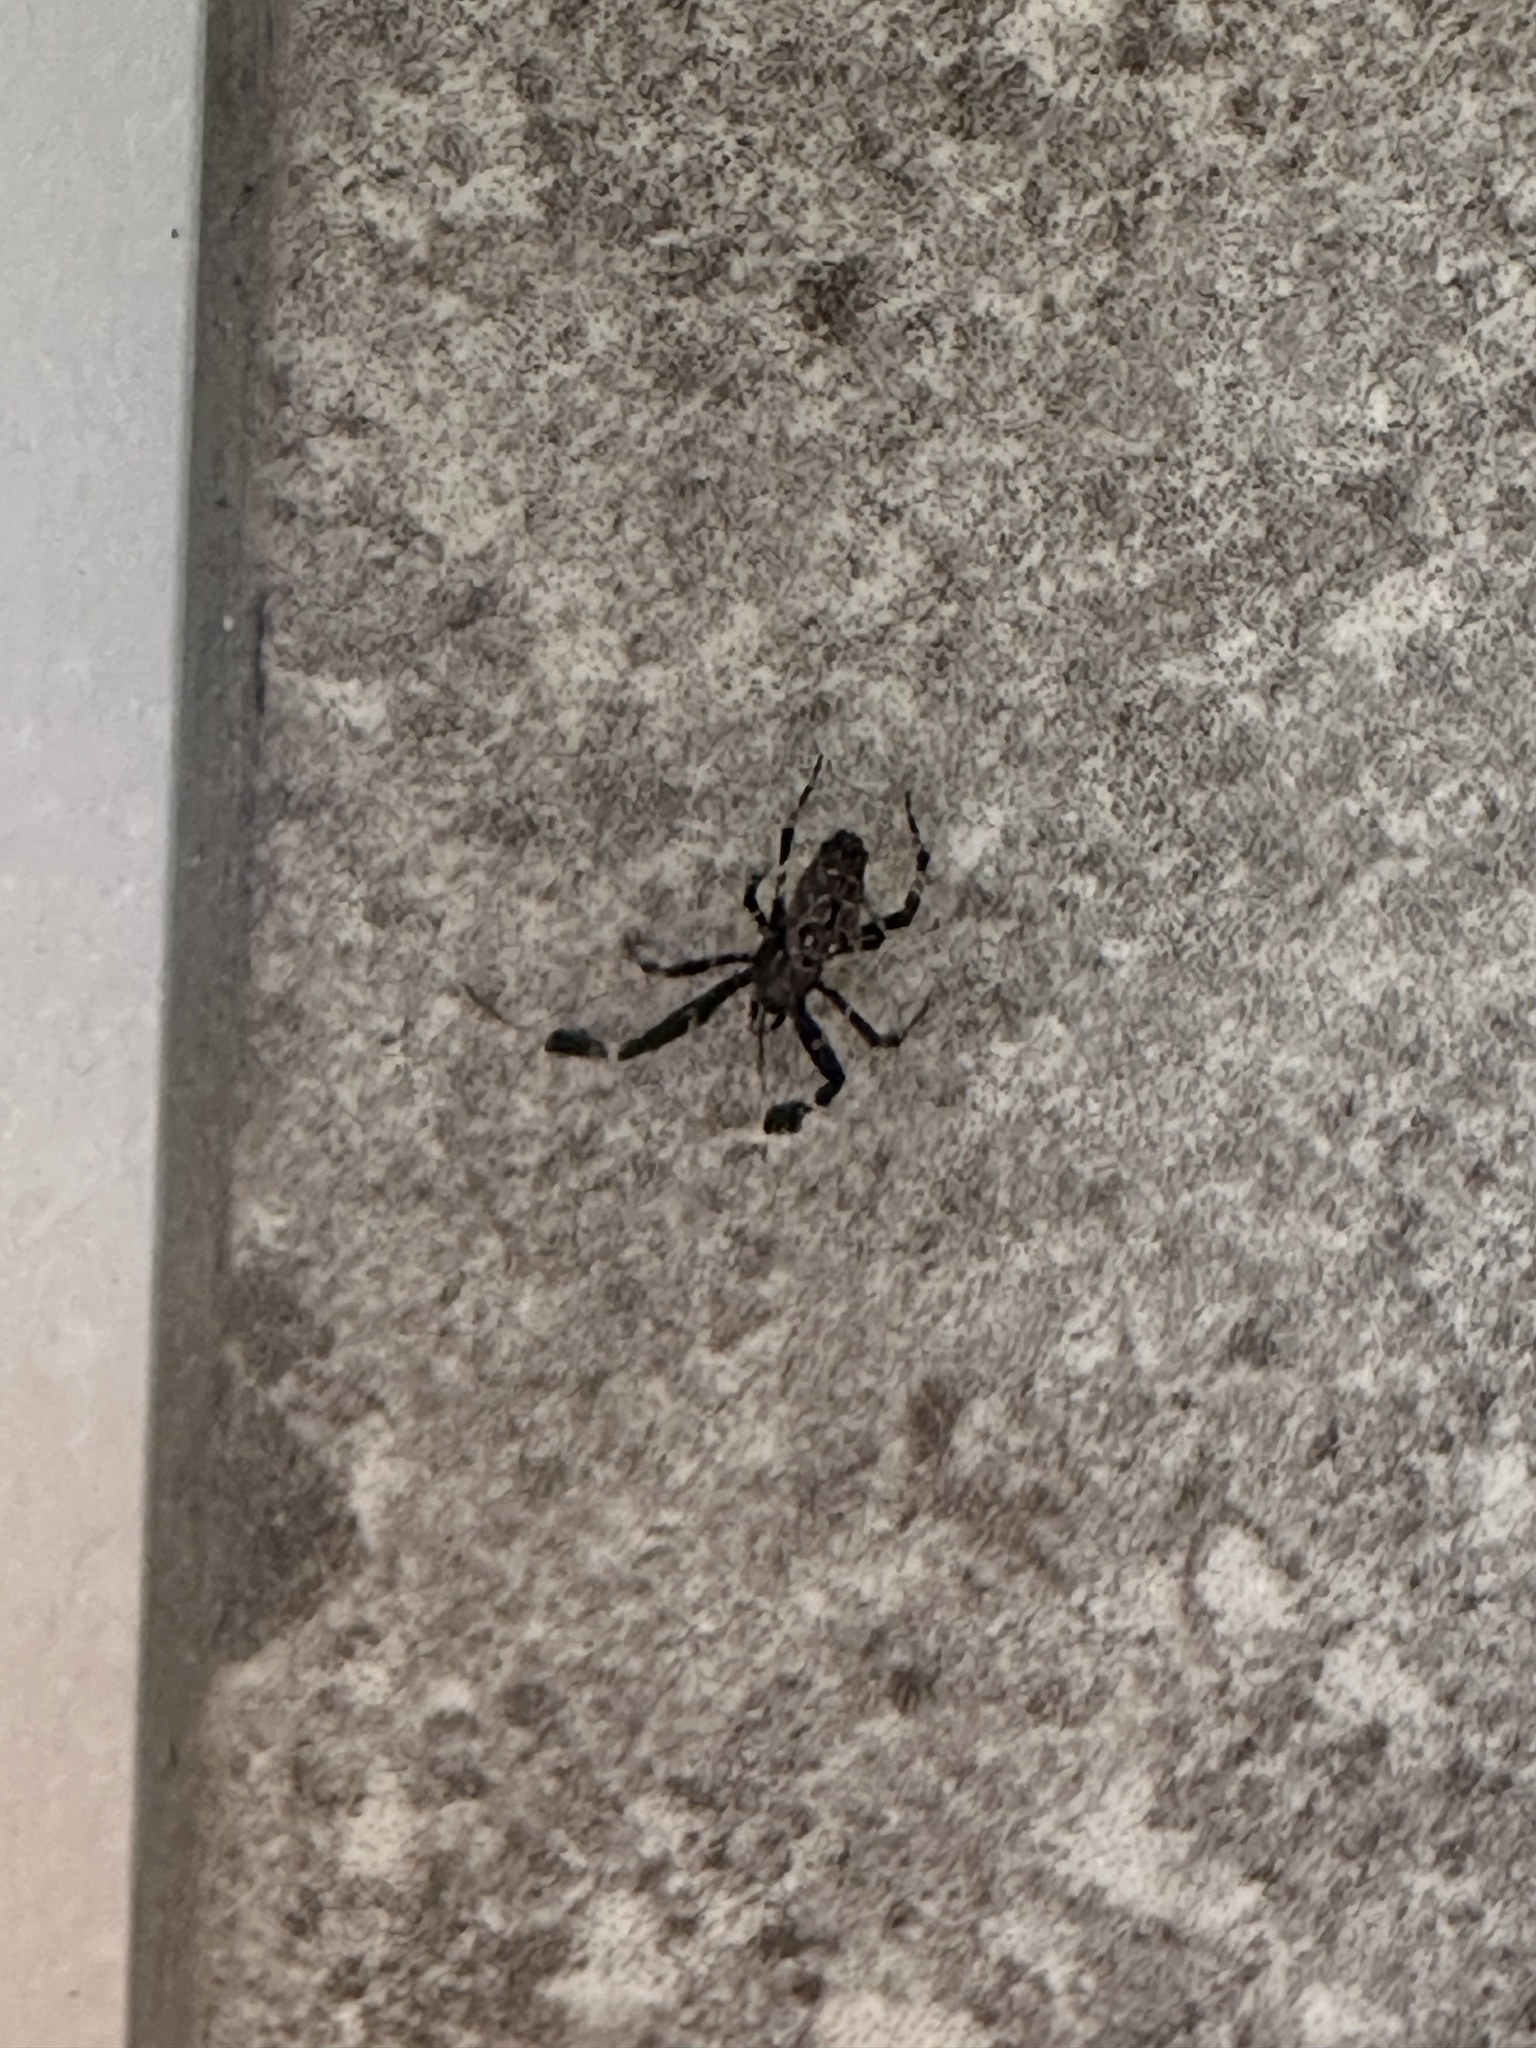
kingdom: Animalia
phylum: Arthropoda
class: Arachnida
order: Araneae
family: Uloboridae
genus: Uloborus
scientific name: Uloborus plumipes
